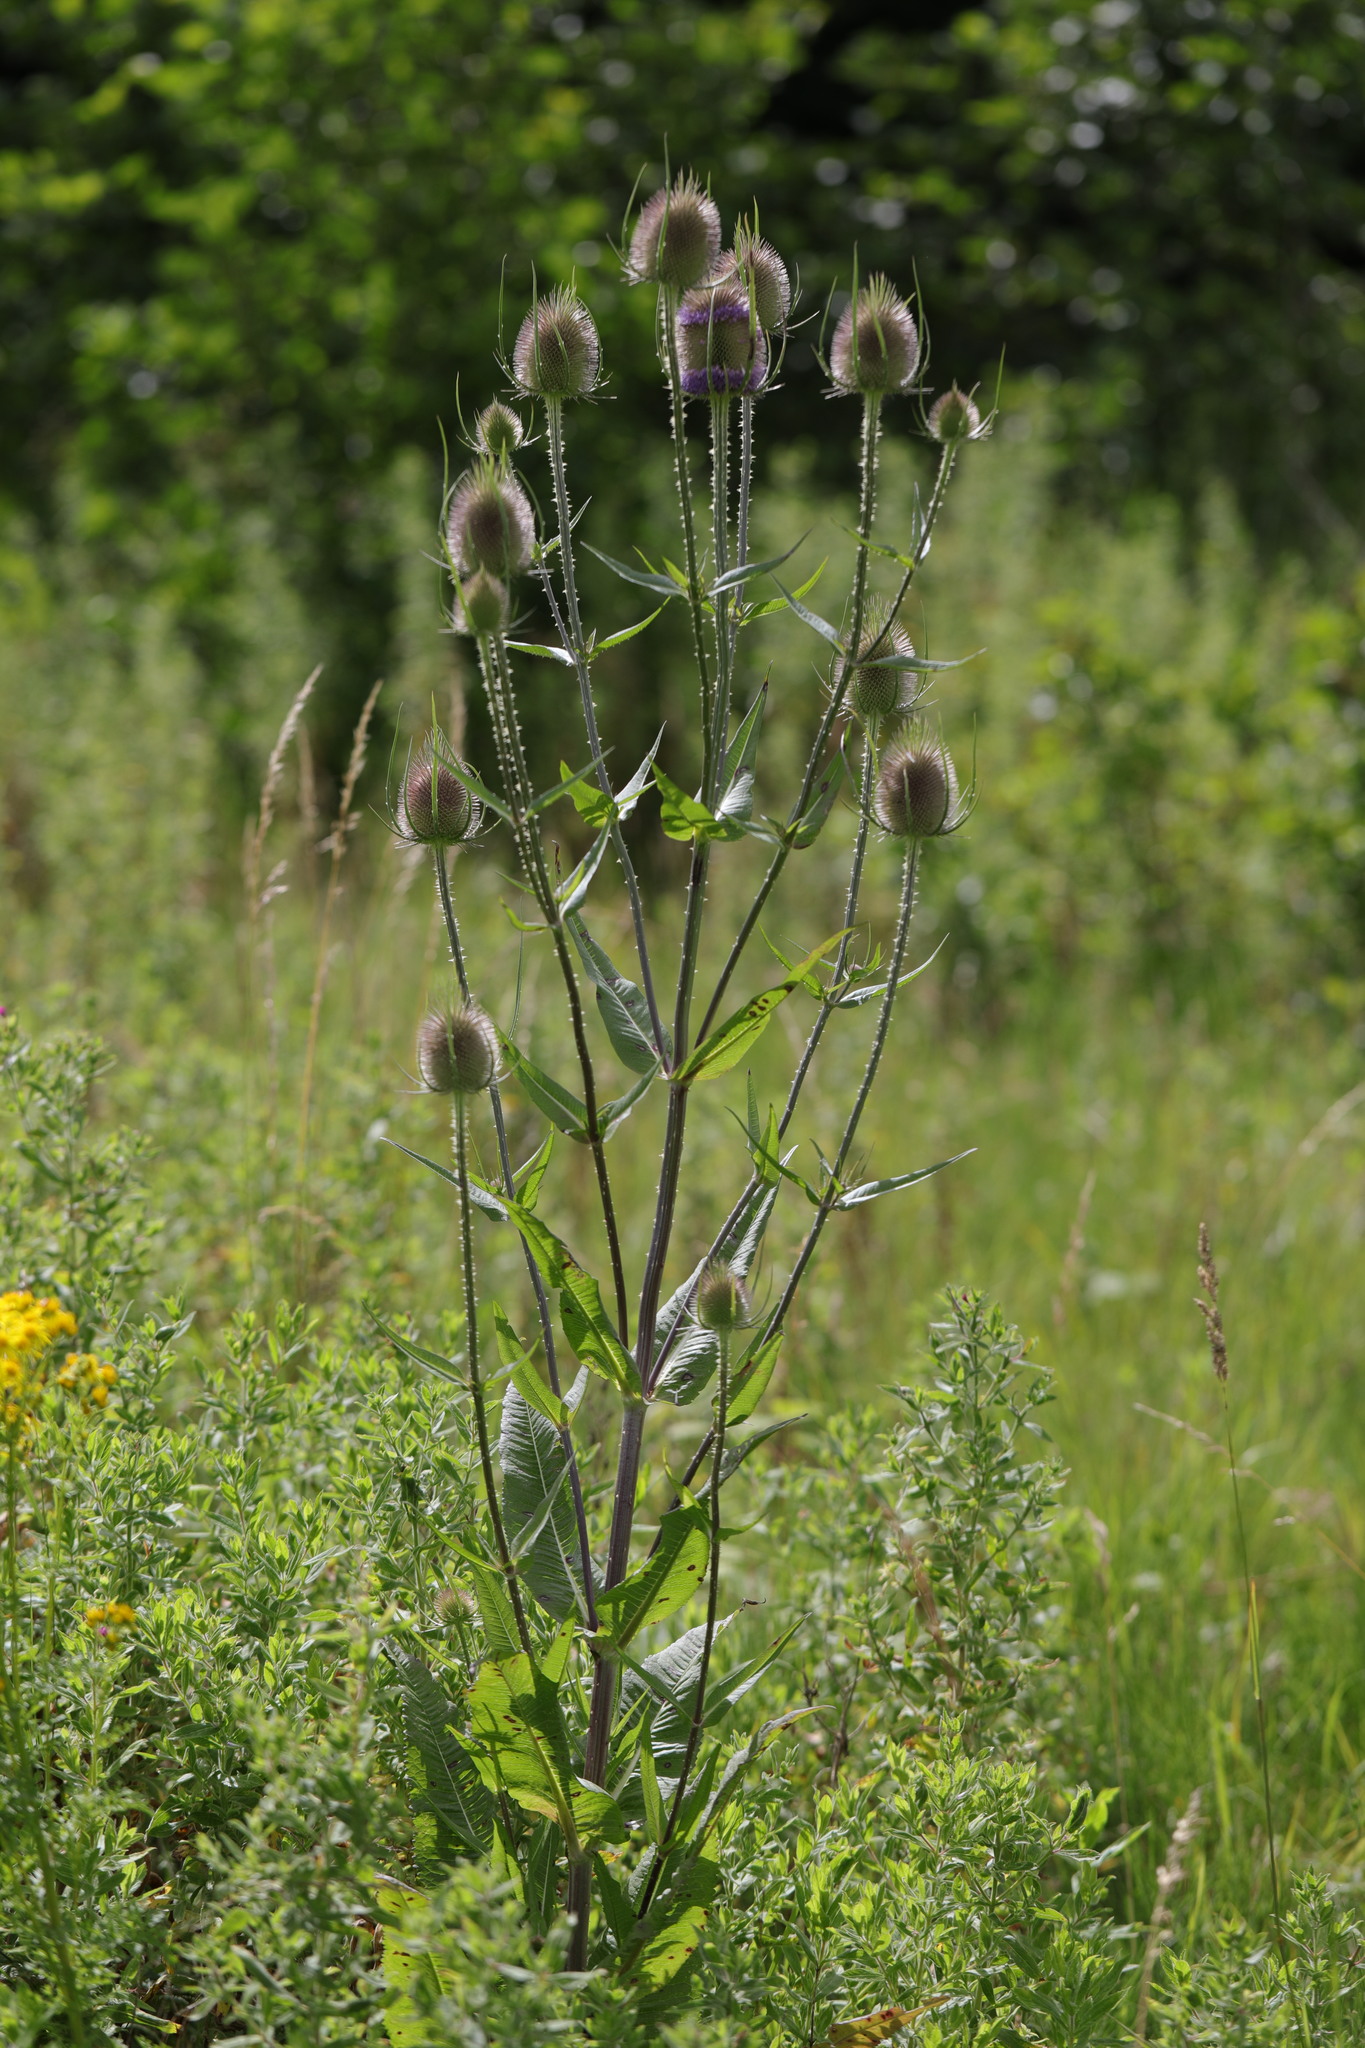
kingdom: Plantae
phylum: Tracheophyta
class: Magnoliopsida
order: Dipsacales
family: Caprifoliaceae
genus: Dipsacus
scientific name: Dipsacus fullonum
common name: Teasel
